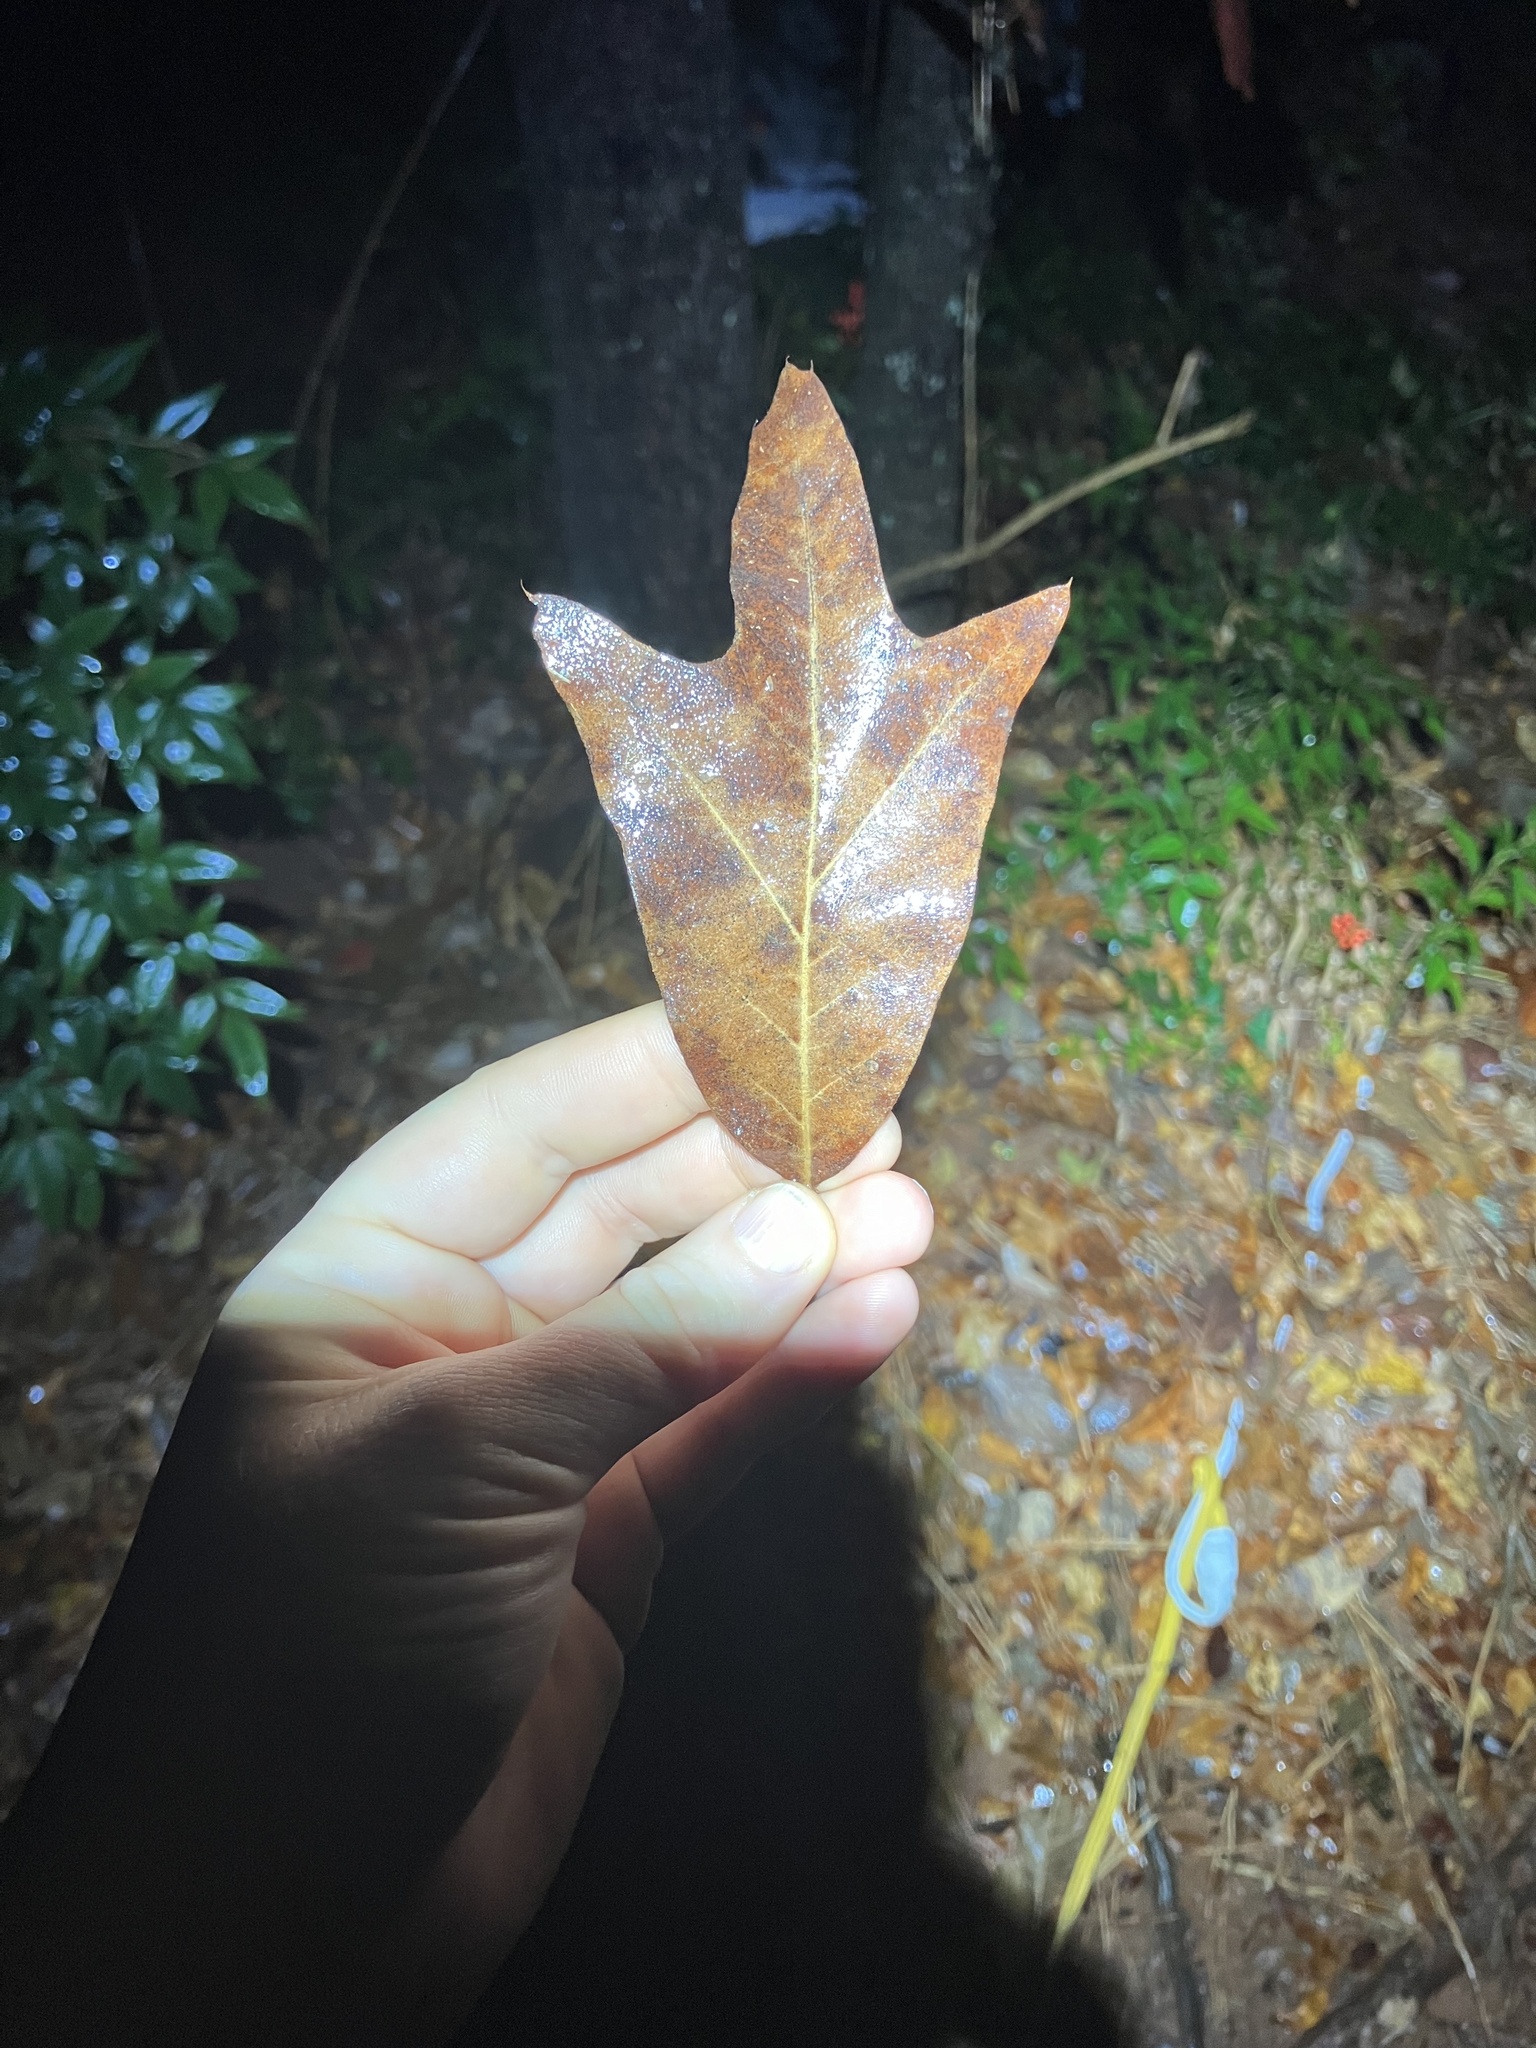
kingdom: Plantae
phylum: Tracheophyta
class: Magnoliopsida
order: Fagales
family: Fagaceae
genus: Quercus
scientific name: Quercus falcata
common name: Southern red oak
